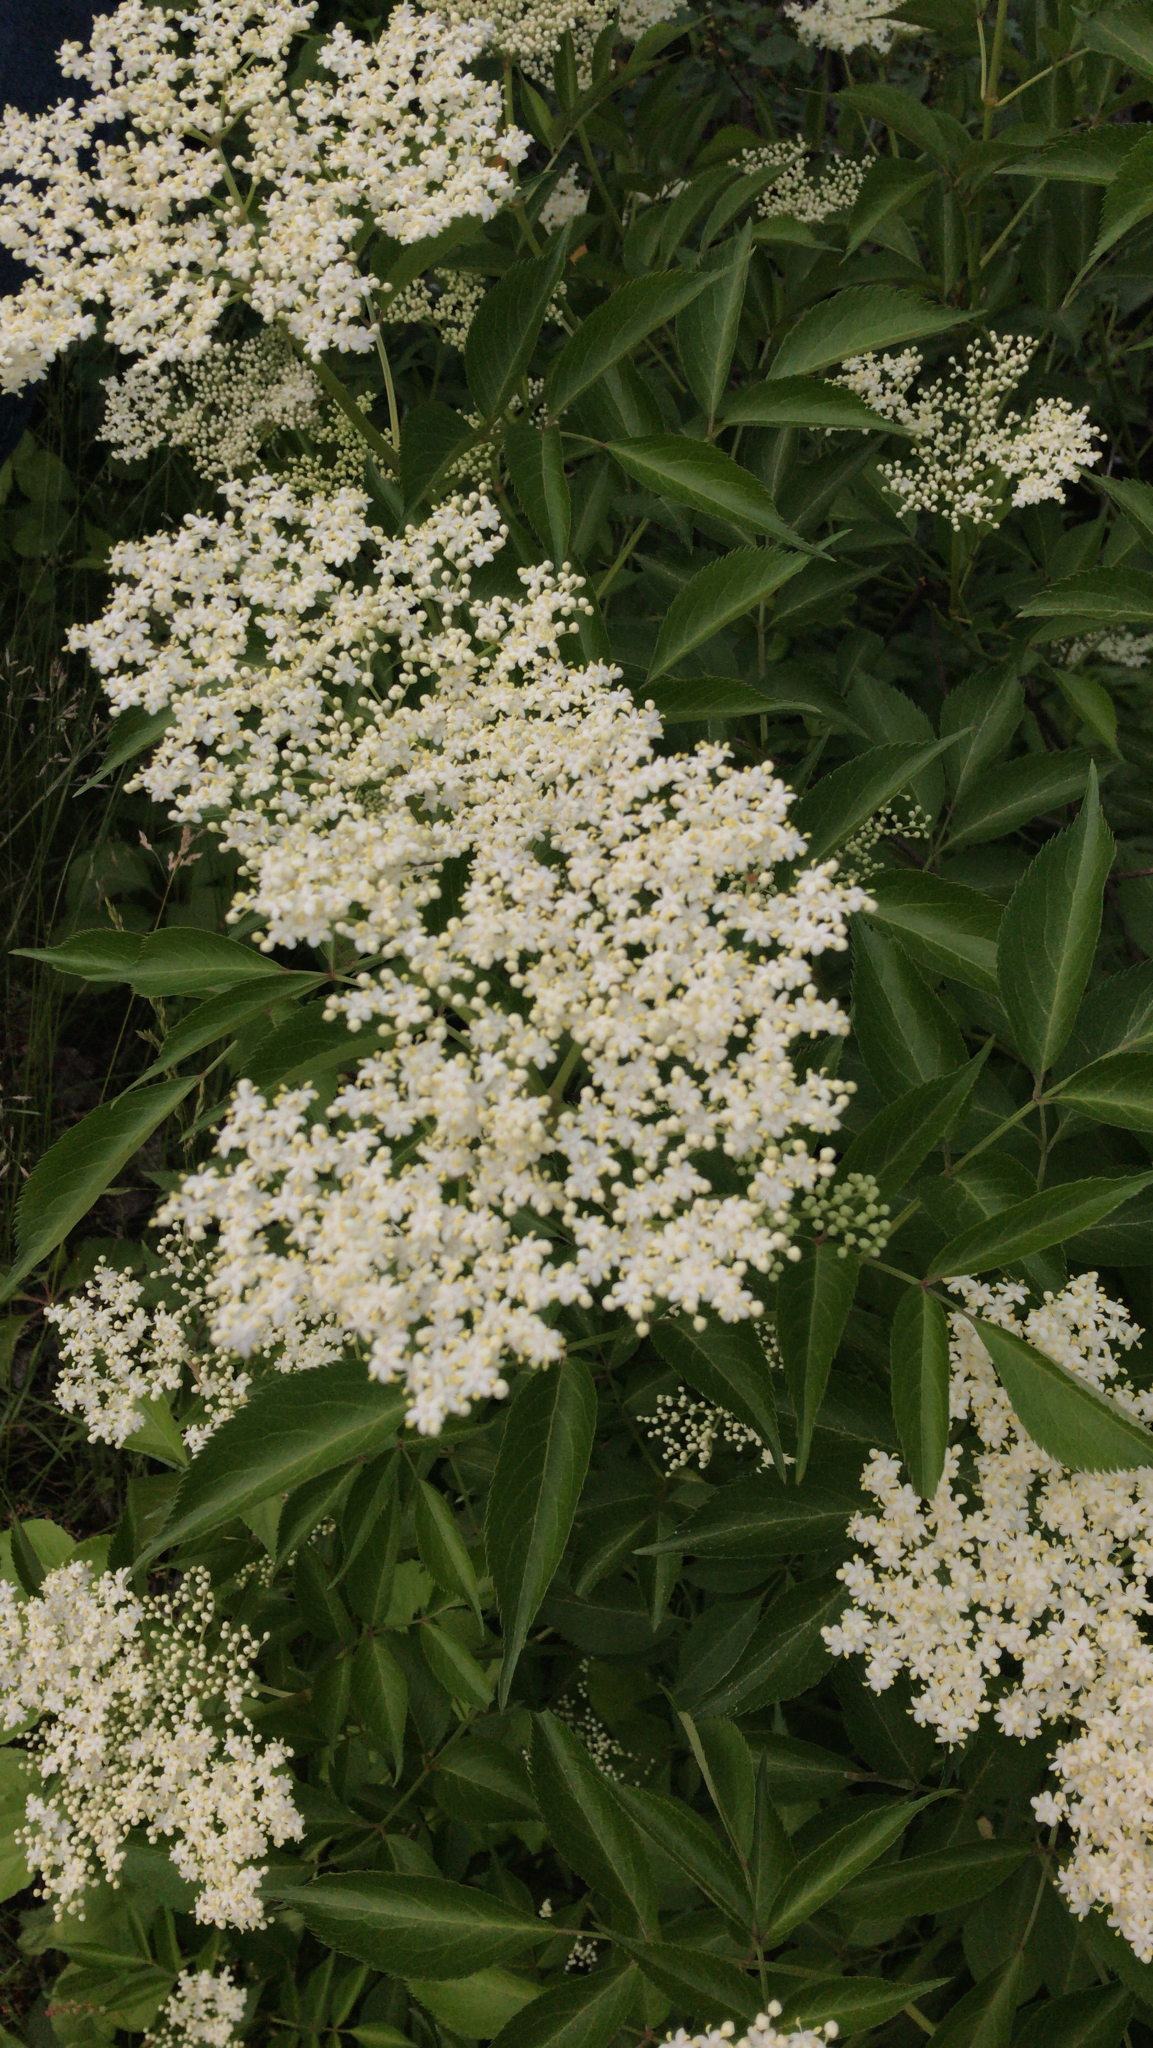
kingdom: Plantae
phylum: Tracheophyta
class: Magnoliopsida
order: Dipsacales
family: Viburnaceae
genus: Sambucus
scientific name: Sambucus canadensis
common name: American elder
